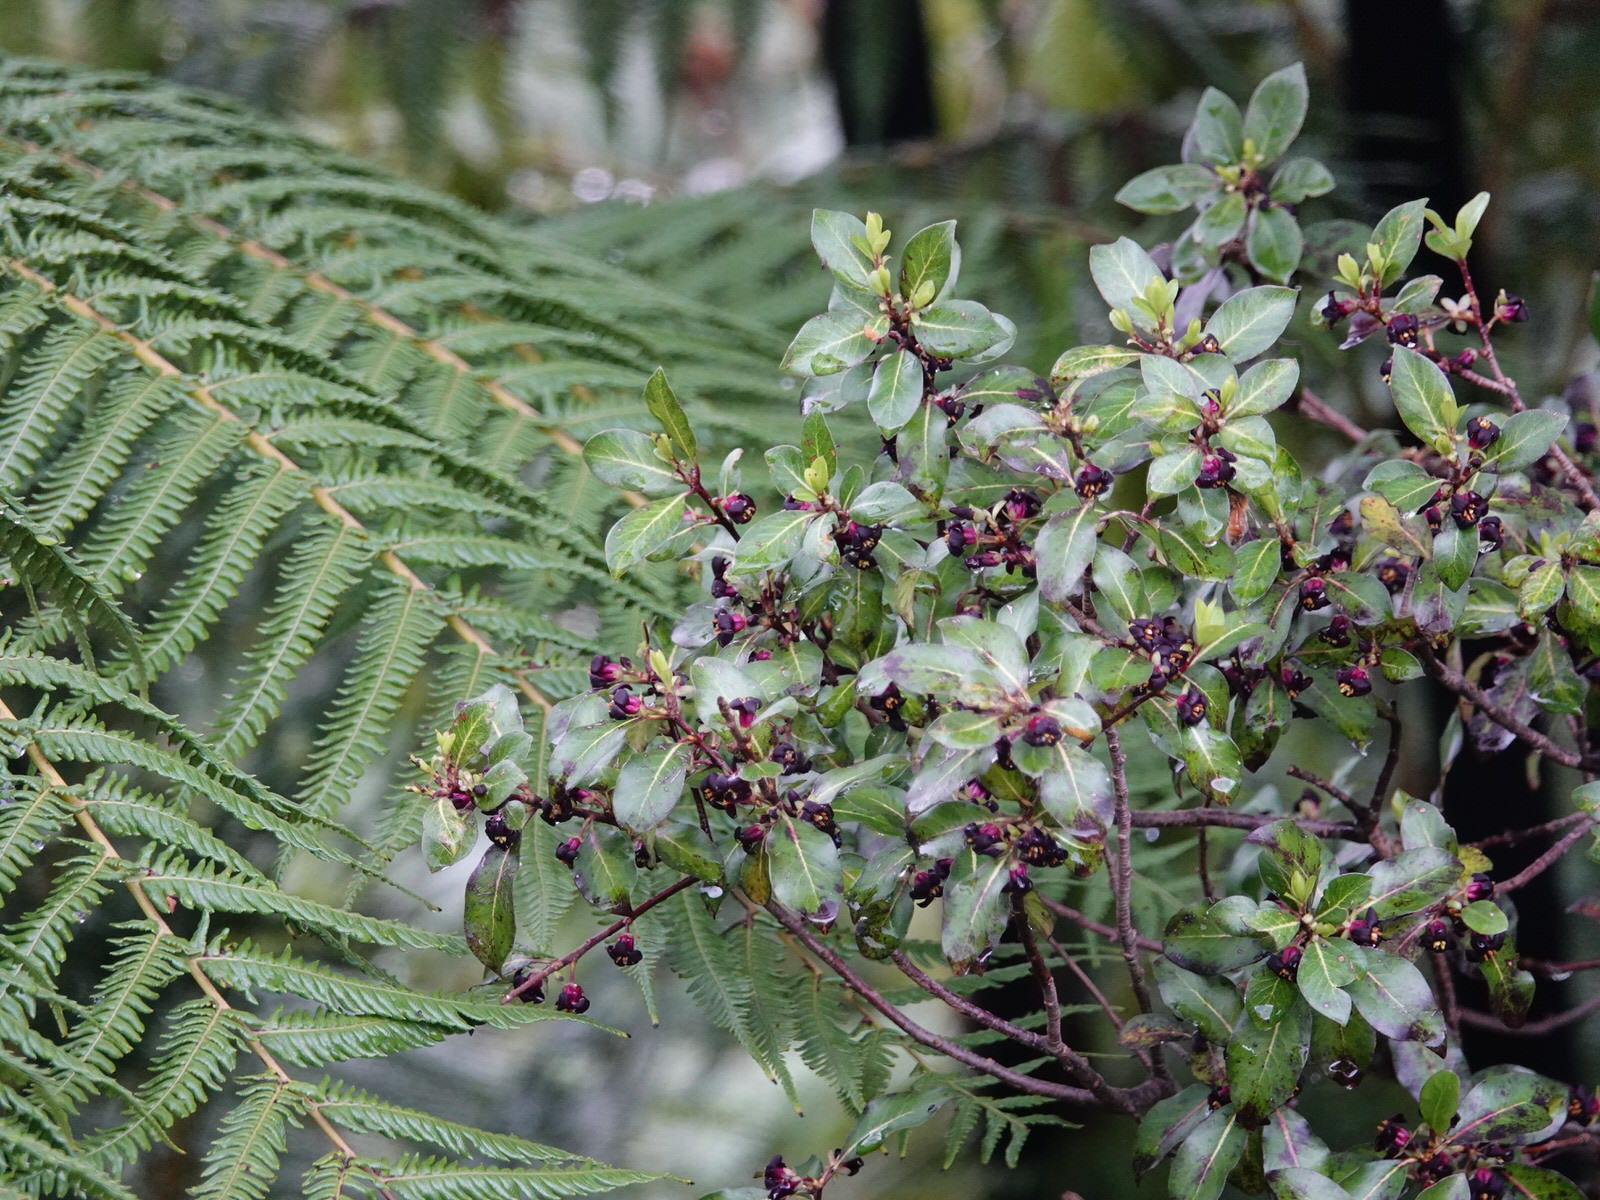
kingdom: Plantae
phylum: Tracheophyta
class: Magnoliopsida
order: Apiales
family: Pittosporaceae
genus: Pittosporum
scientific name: Pittosporum tenuifolium
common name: Kohuhu
